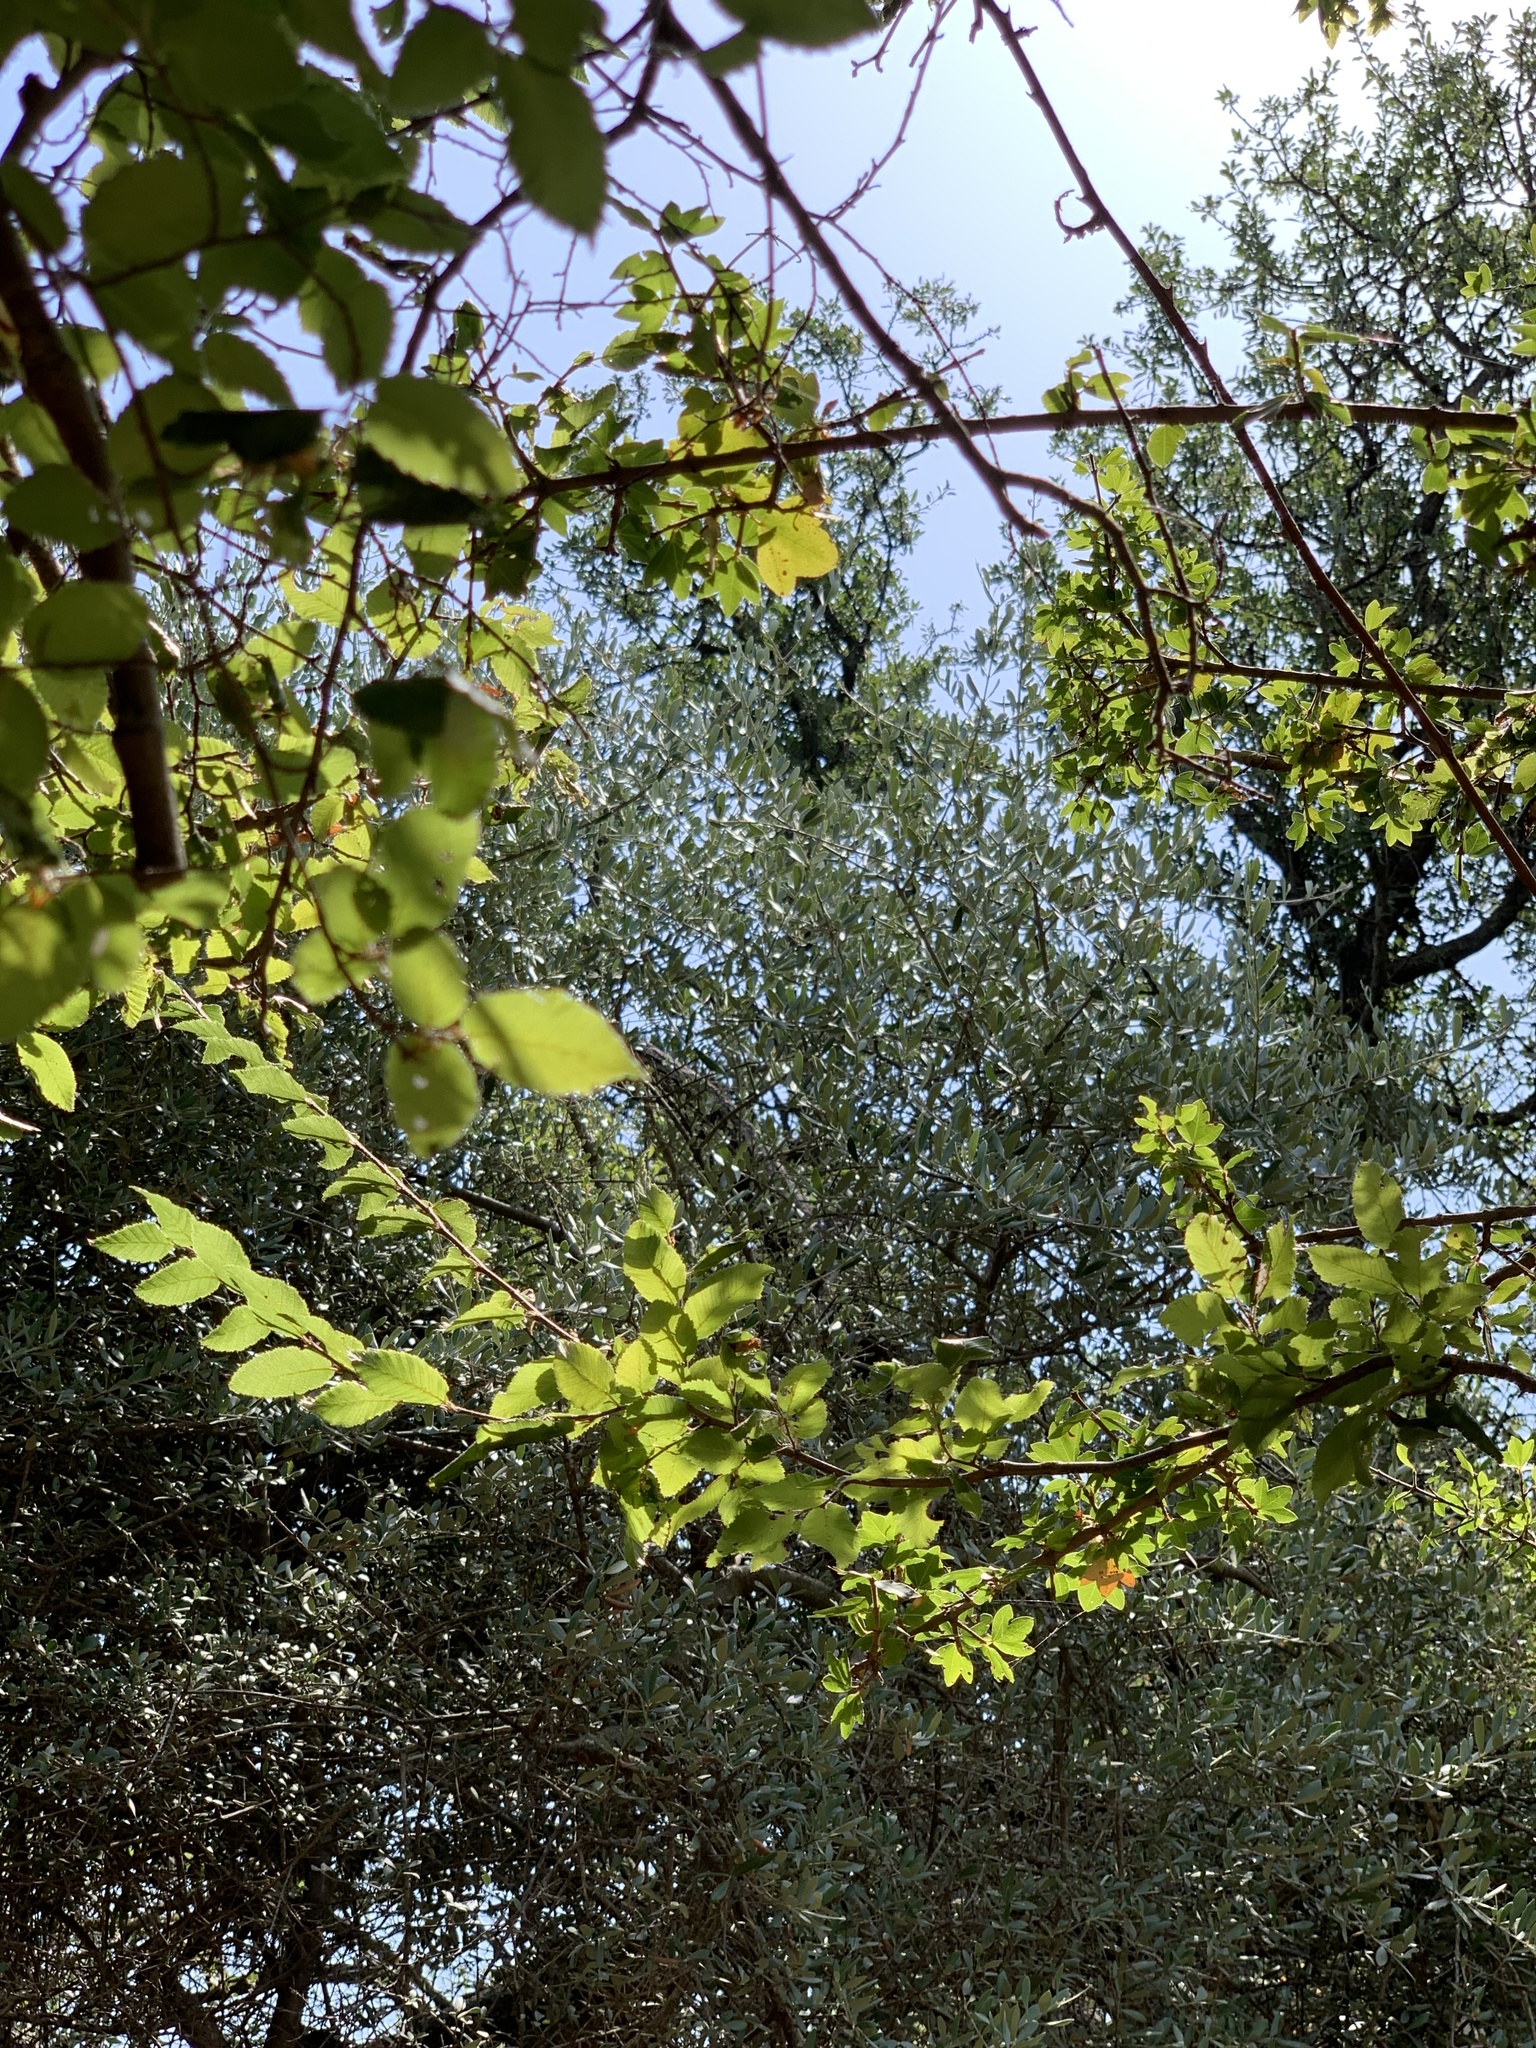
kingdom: Plantae
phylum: Tracheophyta
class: Magnoliopsida
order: Sapindales
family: Sapindaceae
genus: Acer
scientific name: Acer sempervirens
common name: Cretan maple
